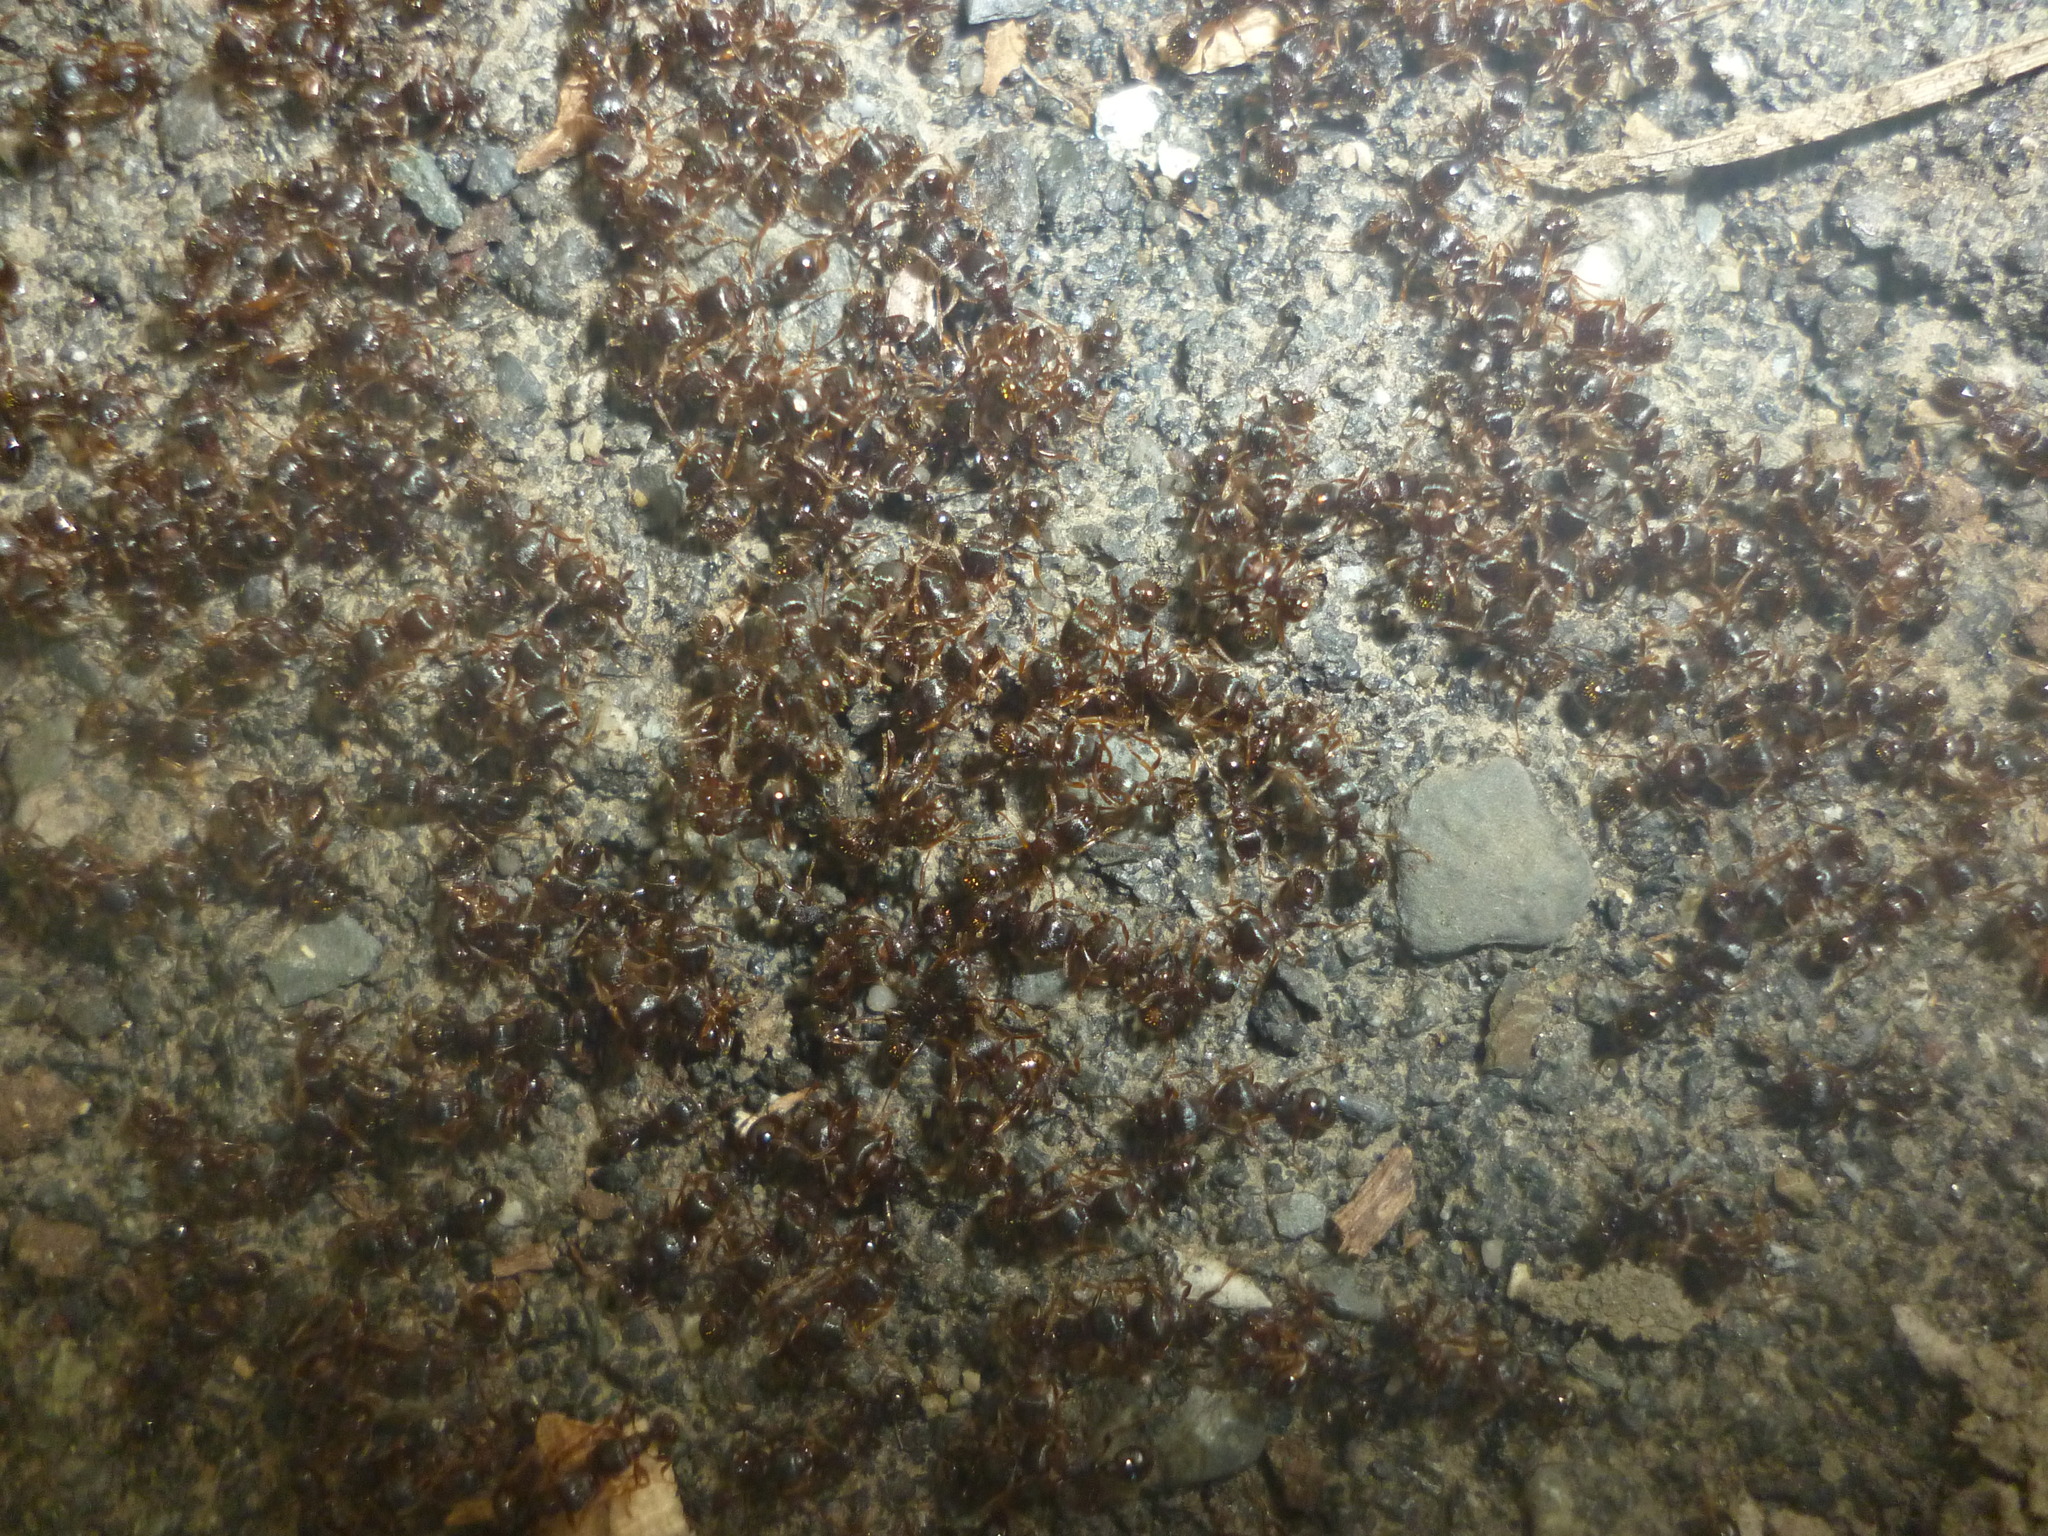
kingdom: Animalia
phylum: Arthropoda
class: Insecta
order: Hymenoptera
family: Formicidae
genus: Tetramorium
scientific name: Tetramorium immigrans
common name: Pavement ant
